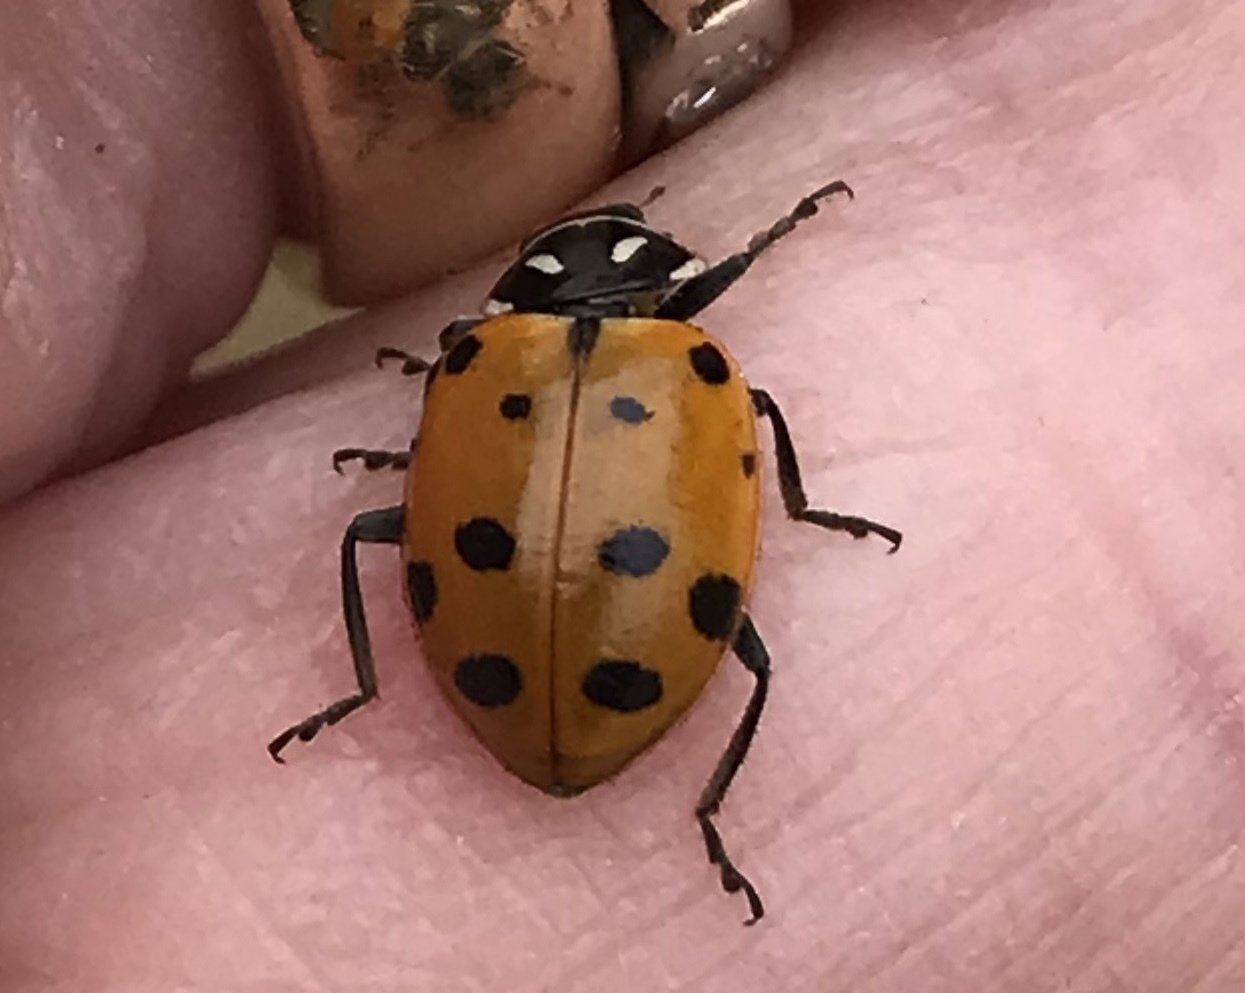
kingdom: Animalia
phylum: Arthropoda
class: Insecta
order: Coleoptera
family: Coccinellidae
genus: Hippodamia
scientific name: Hippodamia convergens
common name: Convergent lady beetle
